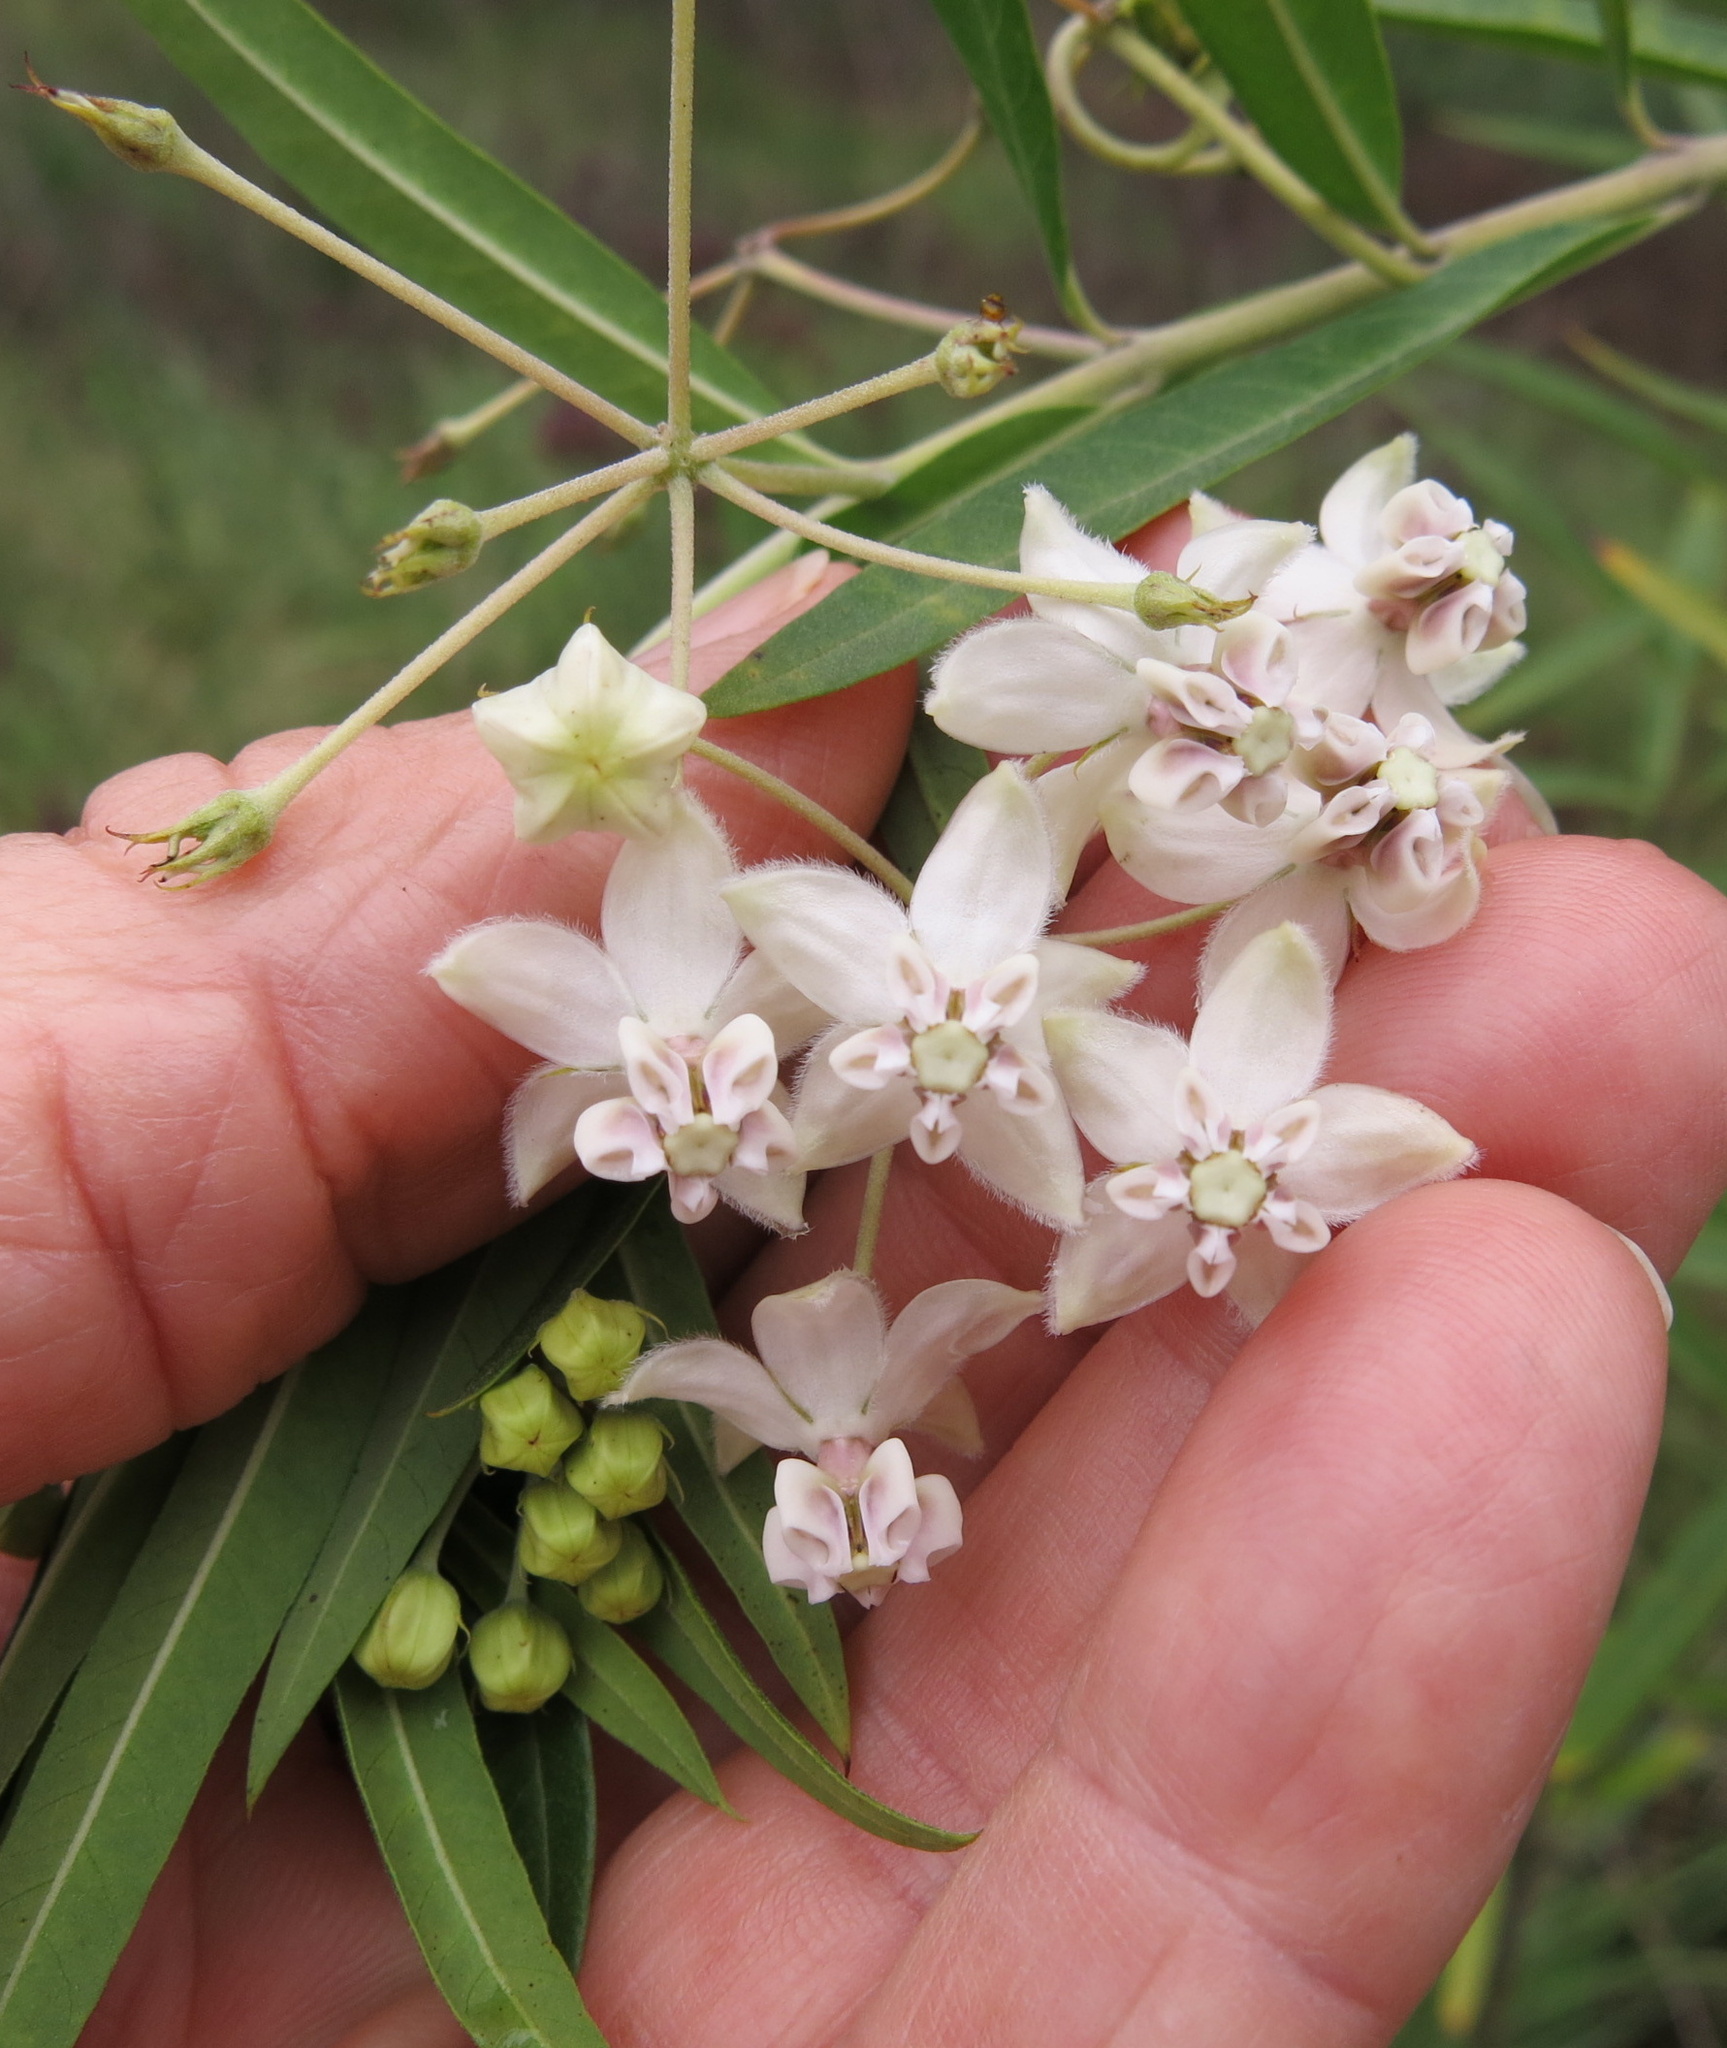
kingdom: Plantae
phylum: Tracheophyta
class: Magnoliopsida
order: Gentianales
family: Apocynaceae
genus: Gomphocarpus
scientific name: Gomphocarpus physocarpus
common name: Balloon cotton bush
